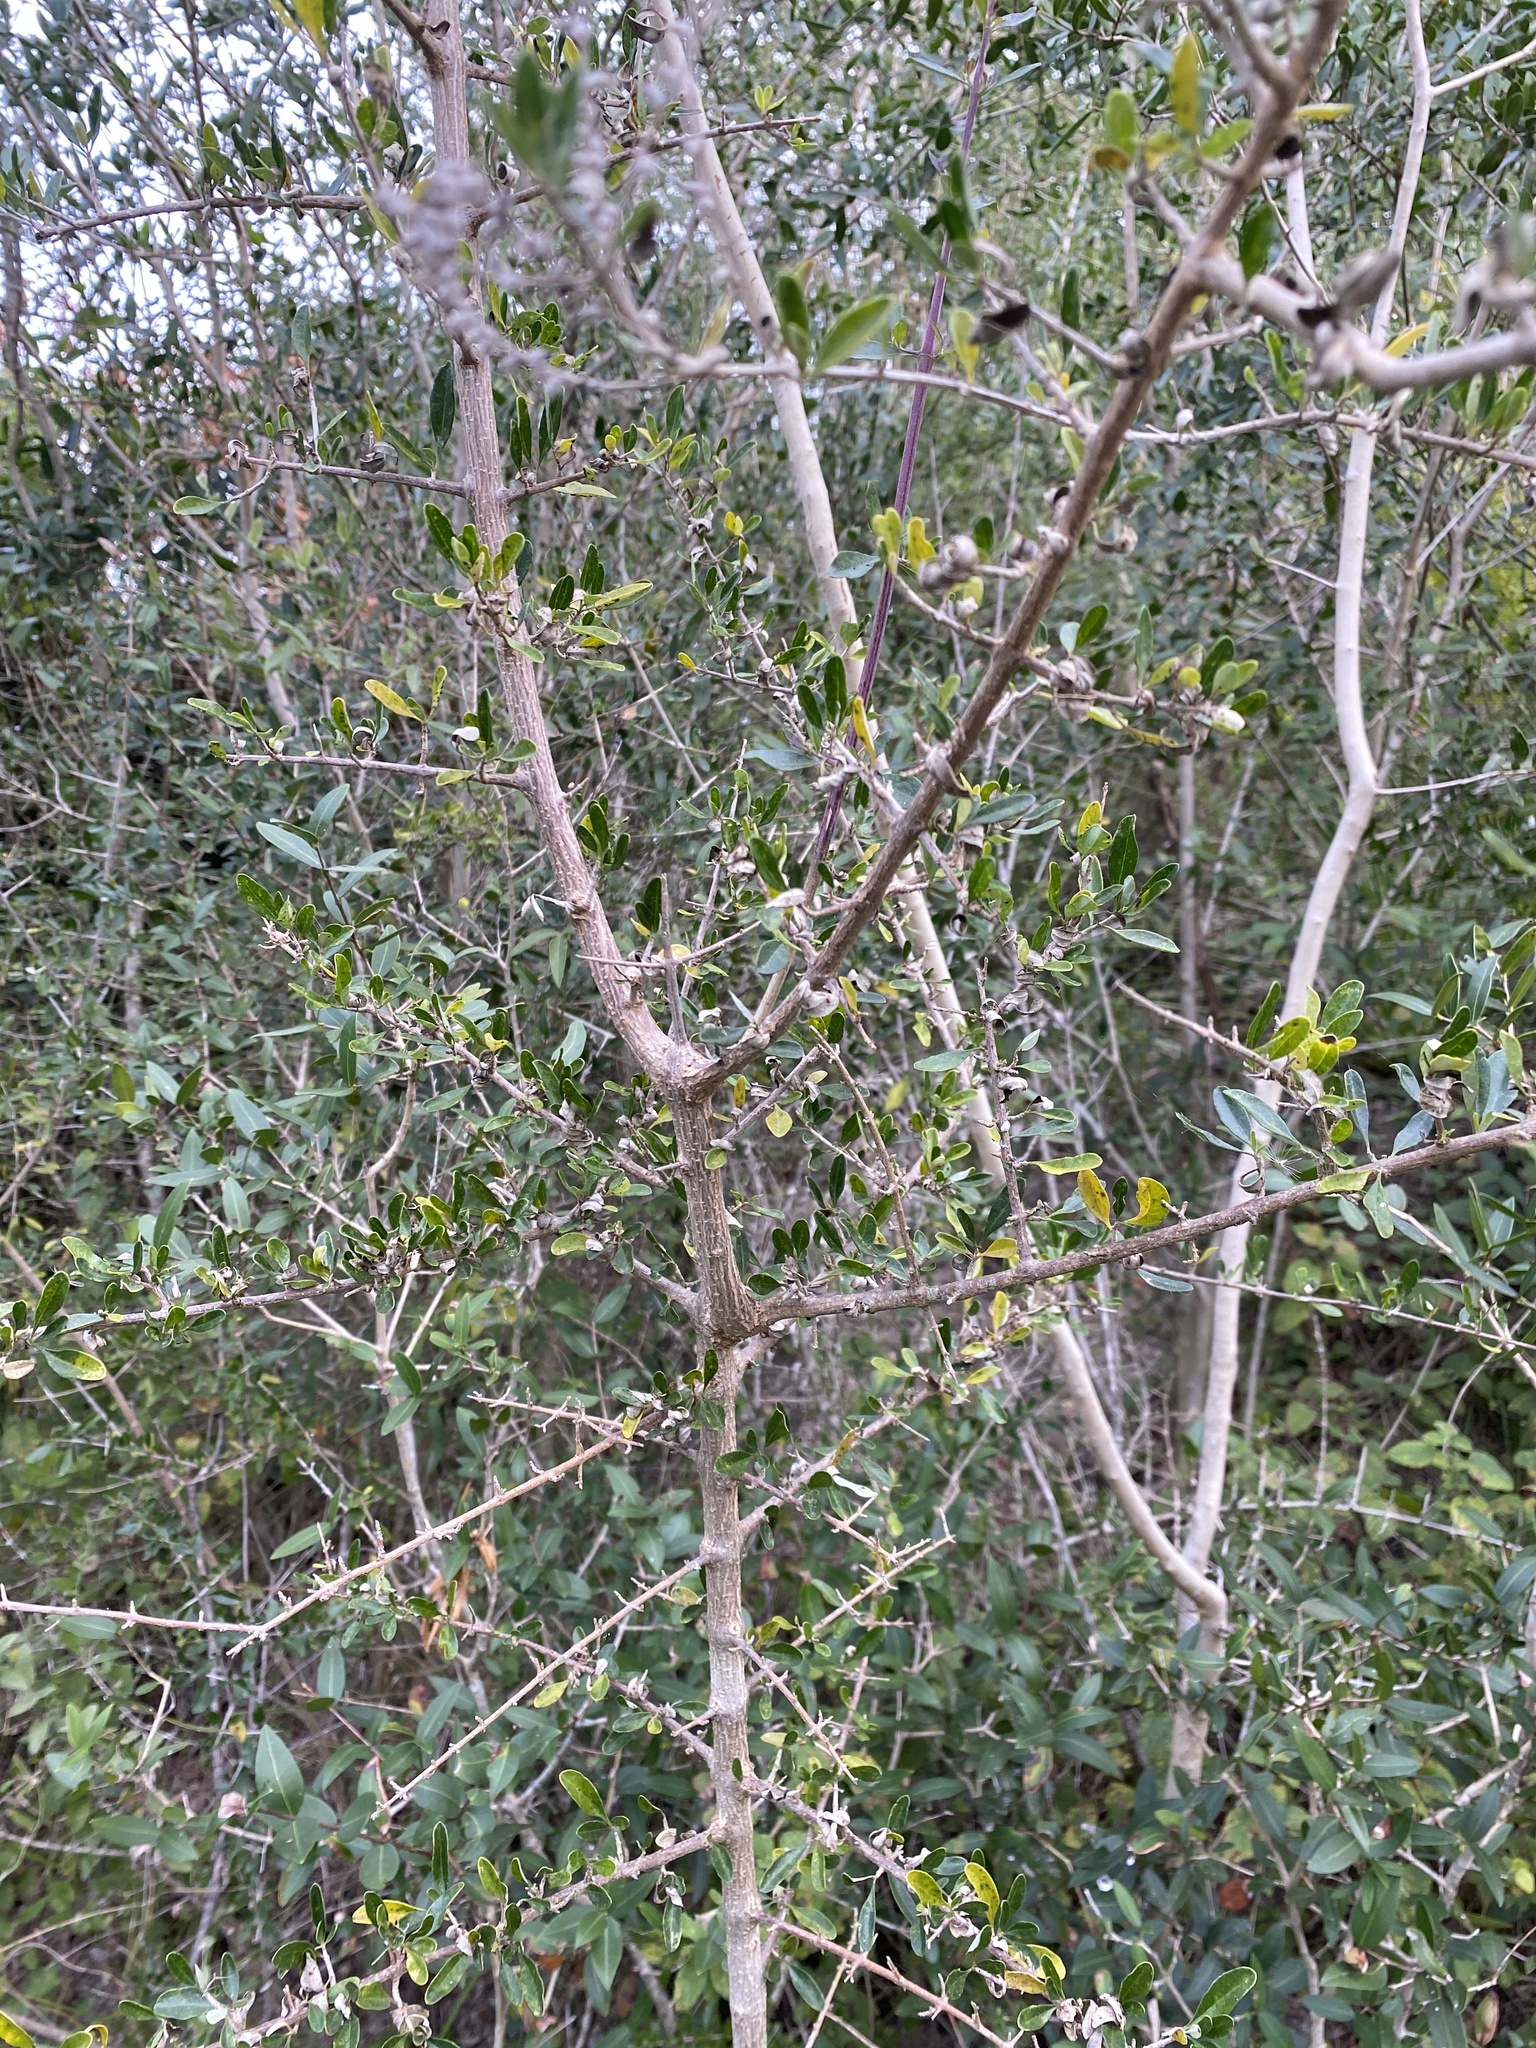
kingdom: Plantae
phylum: Tracheophyta
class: Magnoliopsida
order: Lamiales
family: Verbenaceae
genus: Aloysia
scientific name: Aloysia gratissima
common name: Common bee-brush
